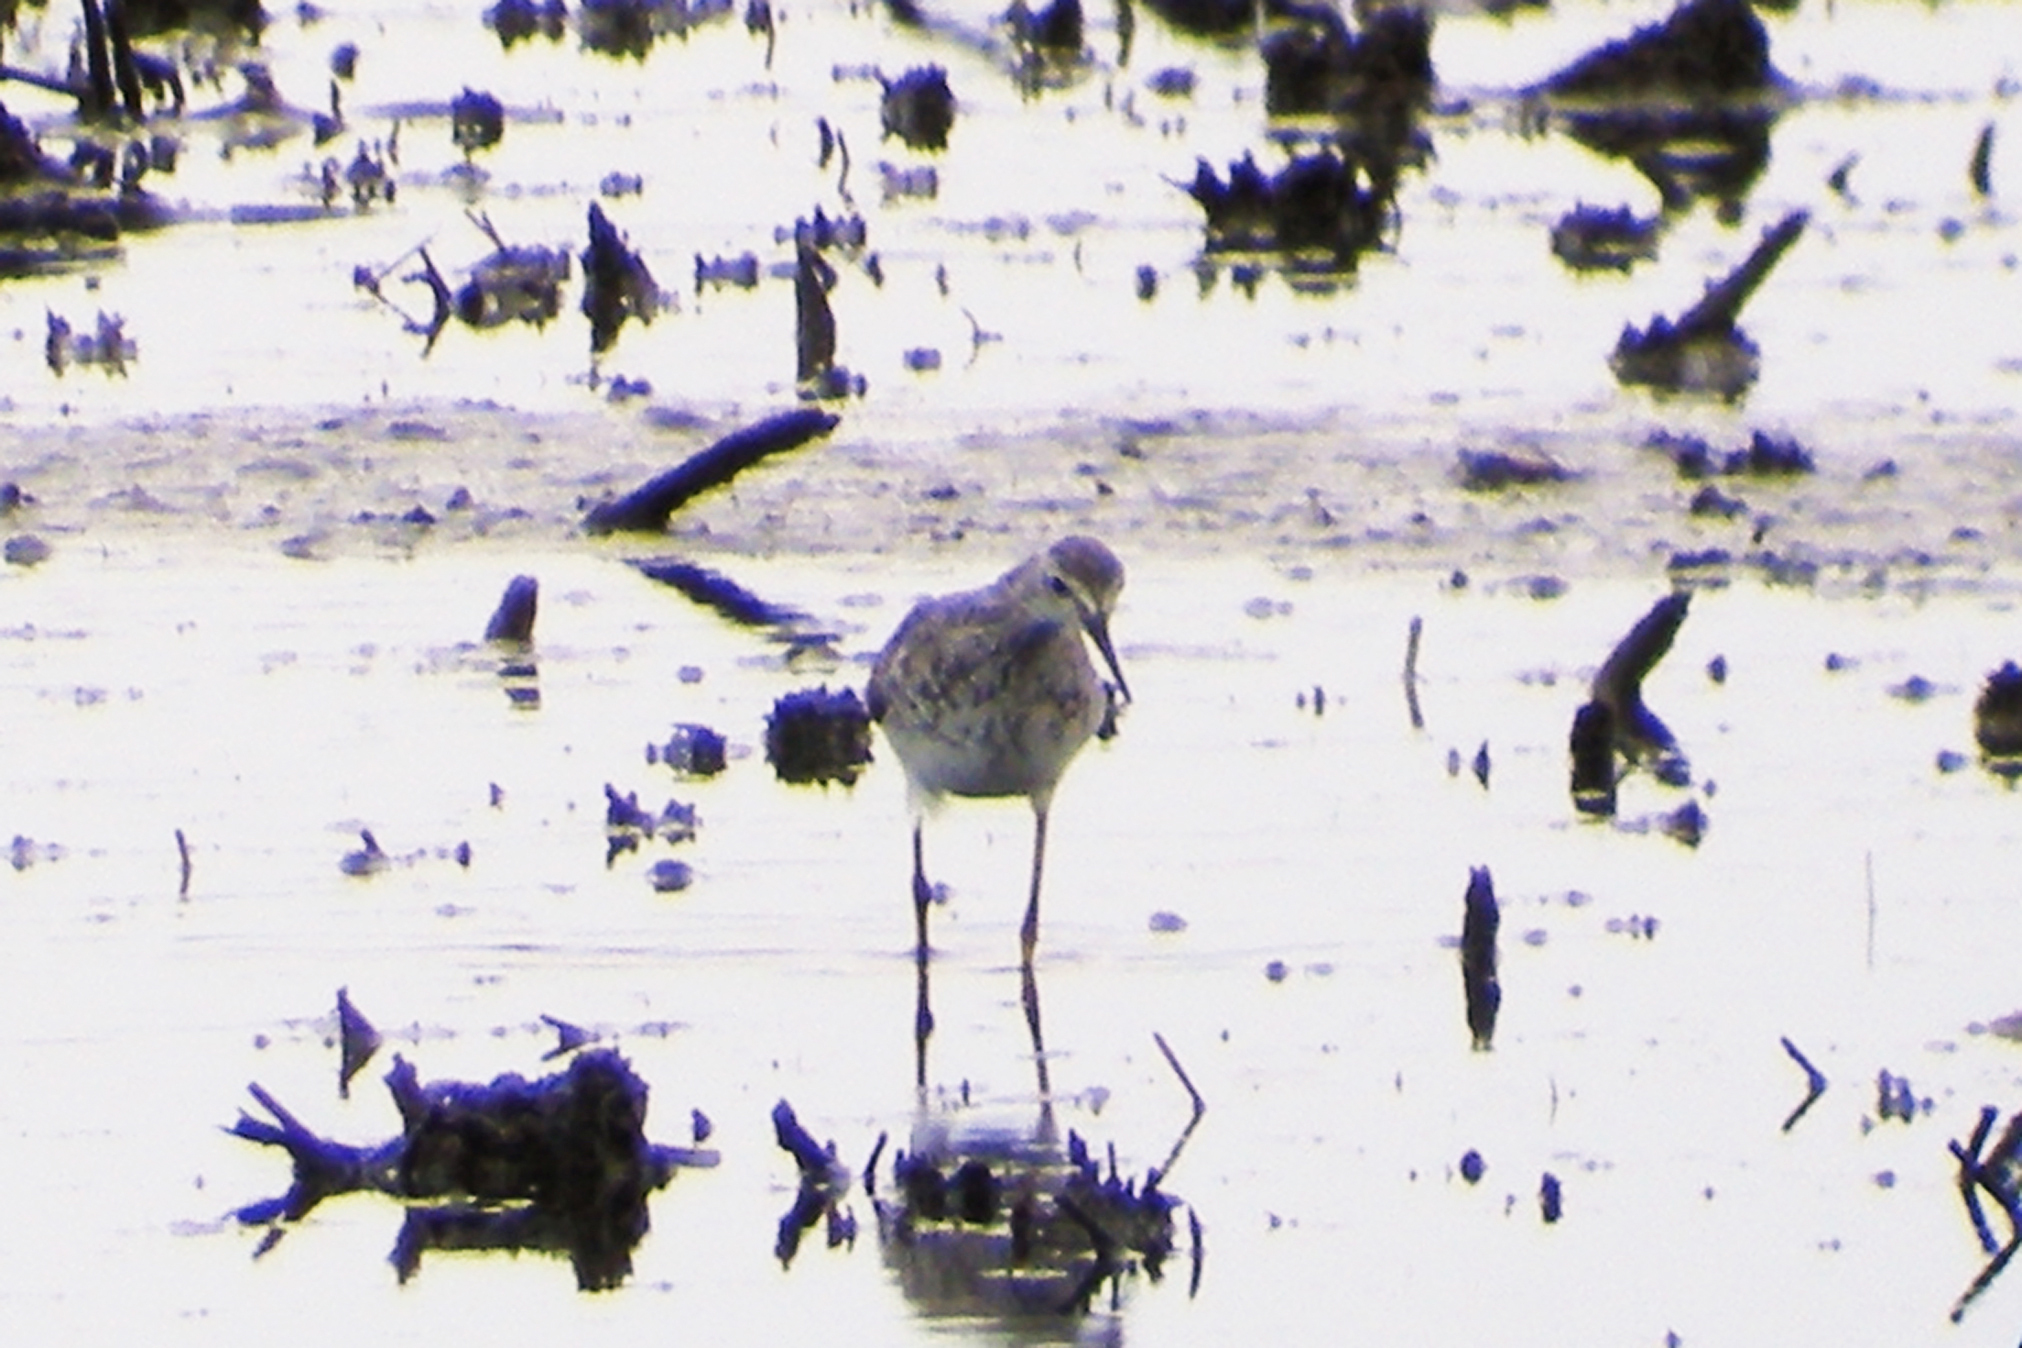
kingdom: Animalia
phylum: Chordata
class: Aves
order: Charadriiformes
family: Scolopacidae
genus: Tringa
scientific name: Tringa flavipes
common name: Lesser yellowlegs
